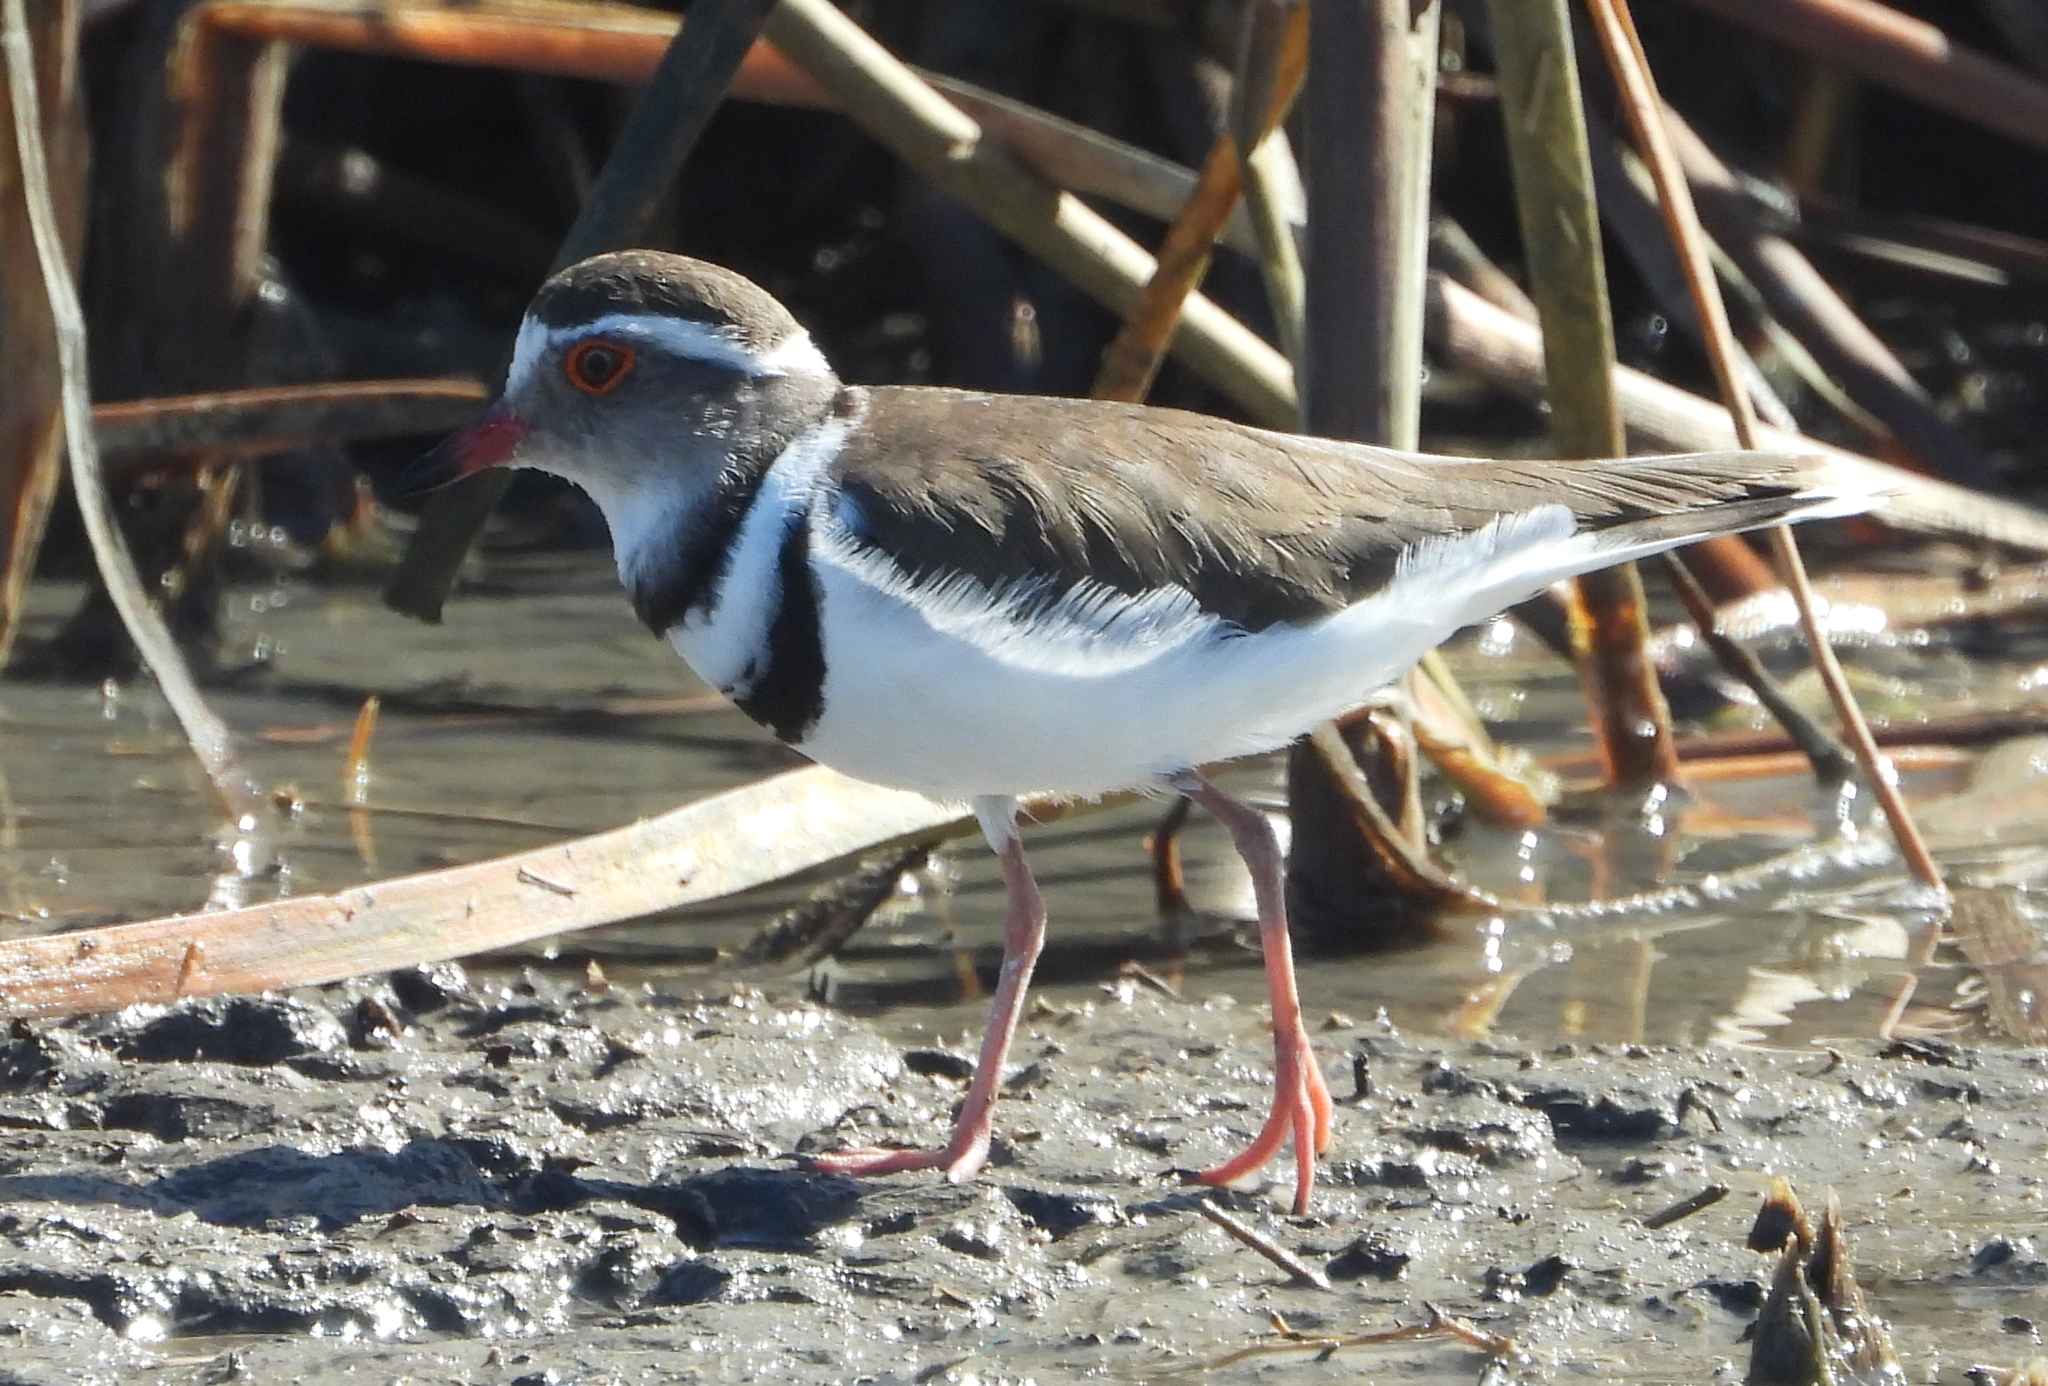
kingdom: Animalia
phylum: Chordata
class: Aves
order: Charadriiformes
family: Charadriidae
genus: Charadrius
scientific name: Charadrius tricollaris
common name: Three-banded plover
